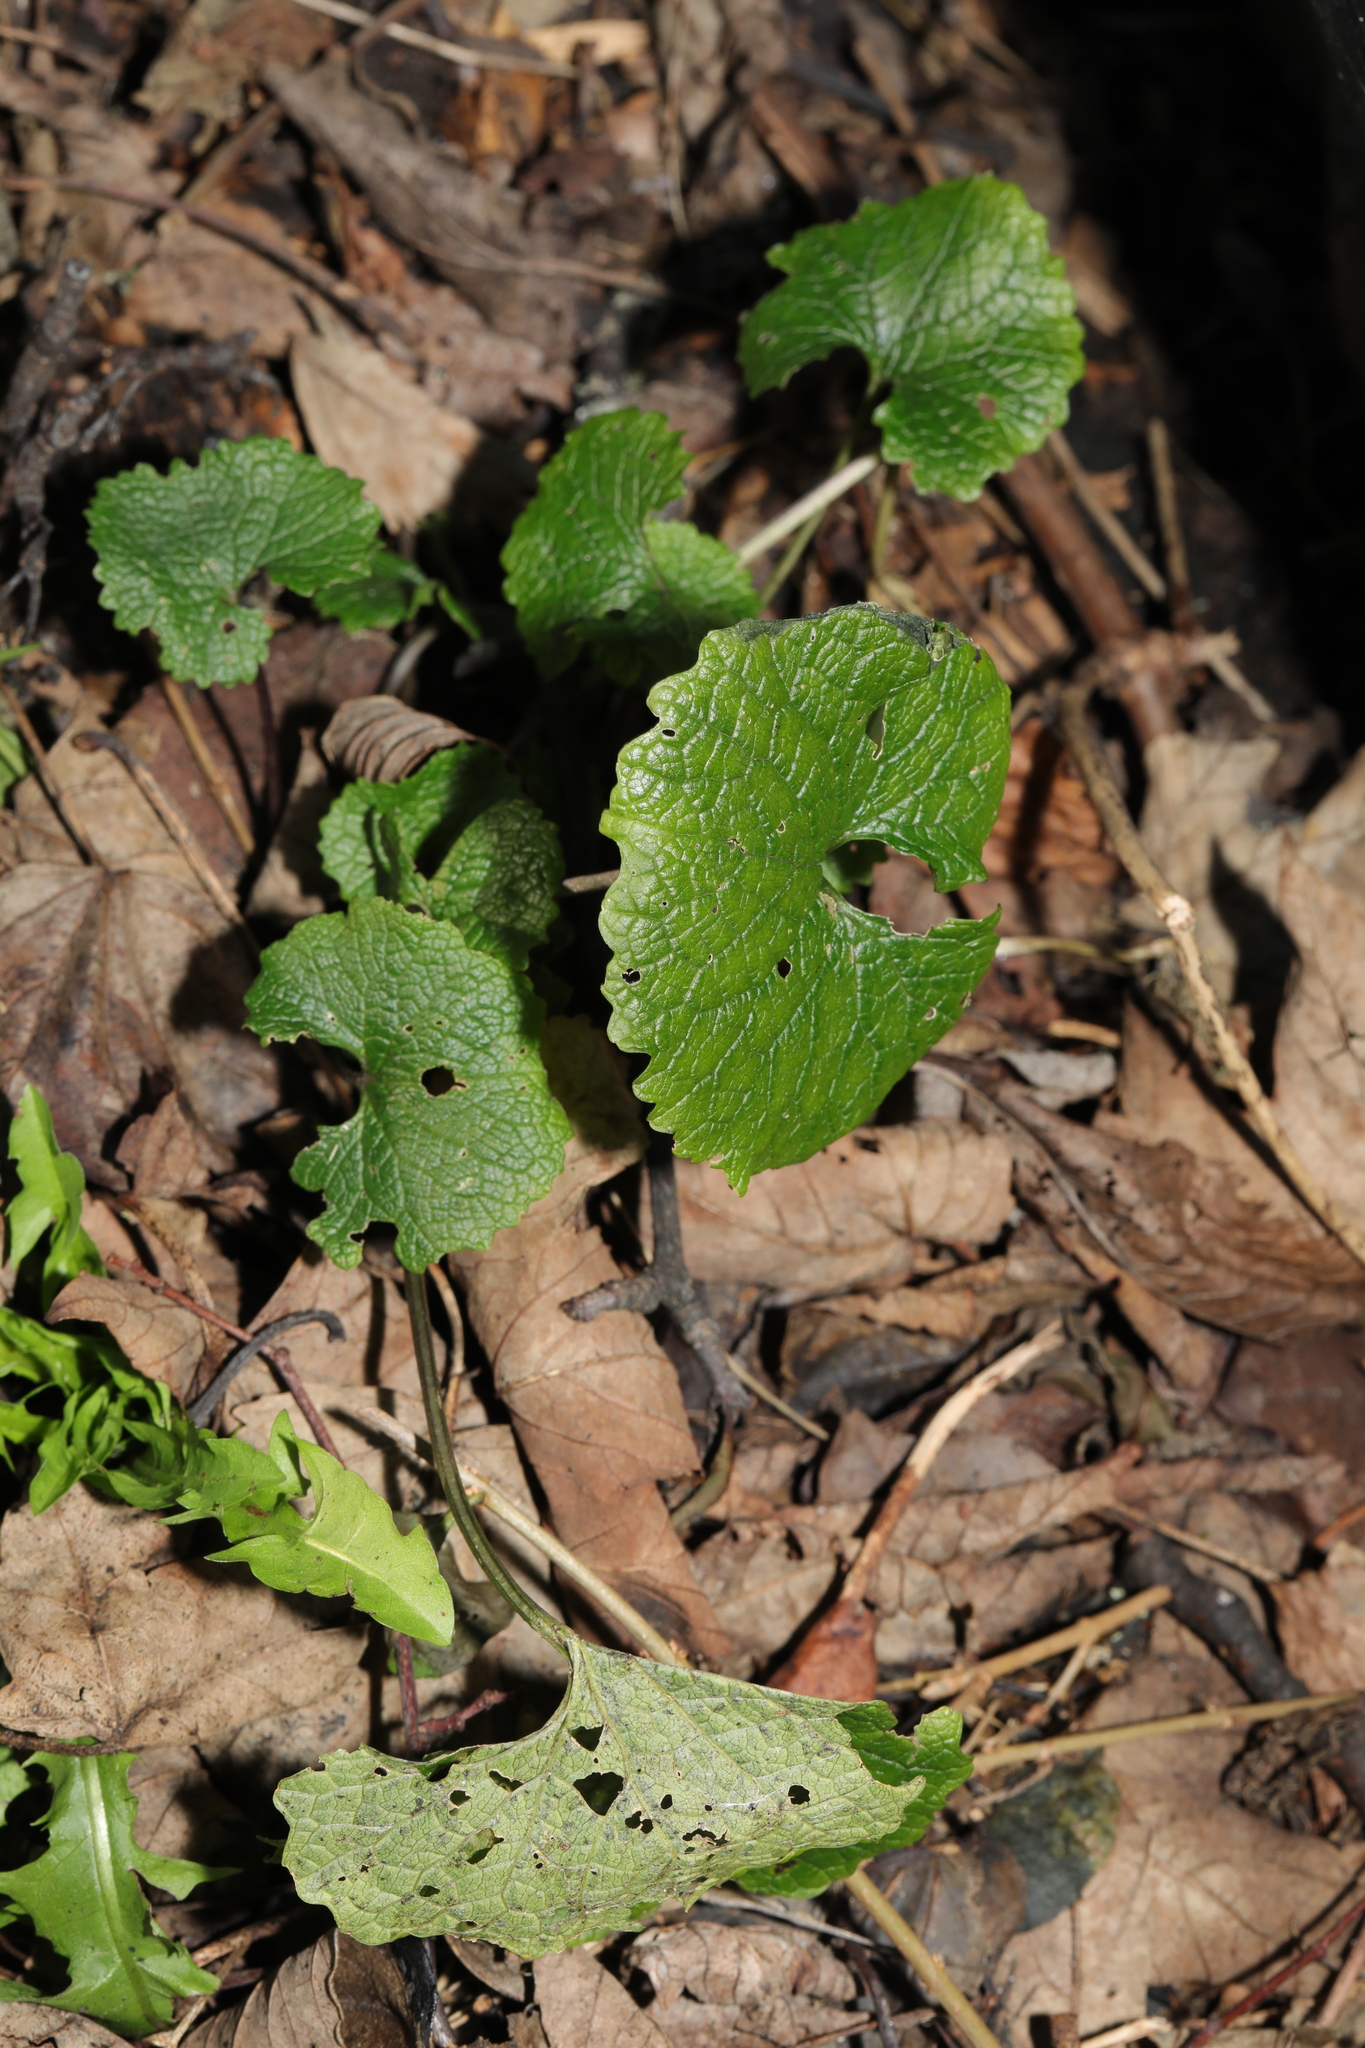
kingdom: Plantae
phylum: Tracheophyta
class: Magnoliopsida
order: Brassicales
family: Brassicaceae
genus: Alliaria
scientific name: Alliaria petiolata
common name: Garlic mustard
